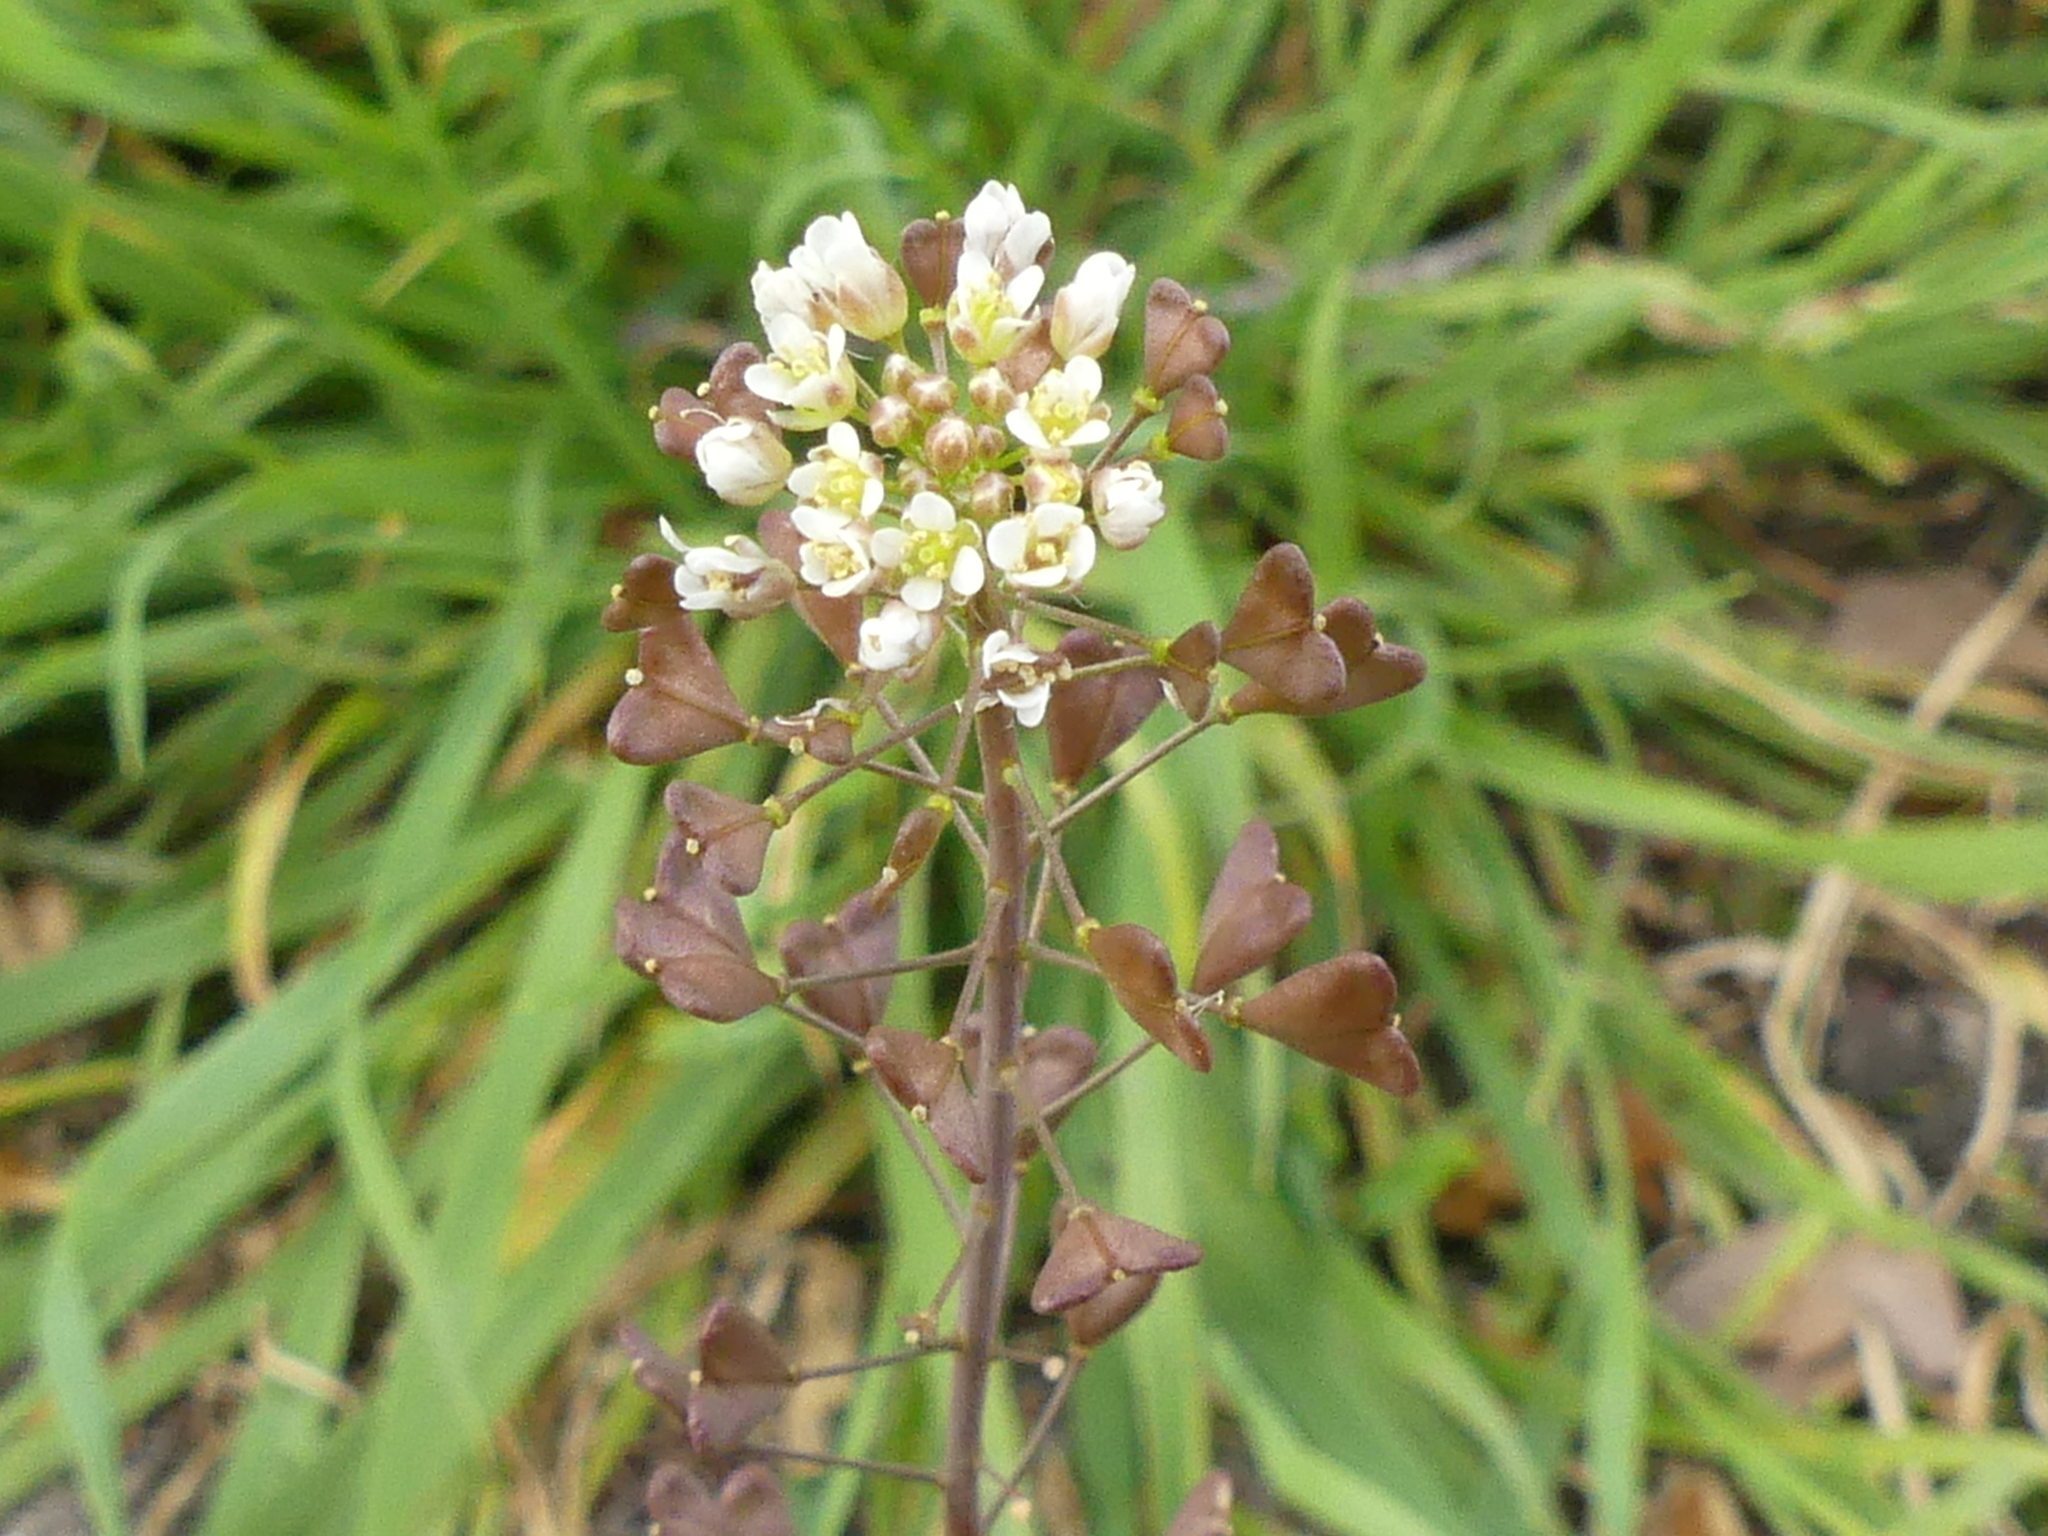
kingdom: Plantae
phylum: Tracheophyta
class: Magnoliopsida
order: Brassicales
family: Brassicaceae
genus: Capsella
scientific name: Capsella bursa-pastoris
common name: Shepherd's purse
